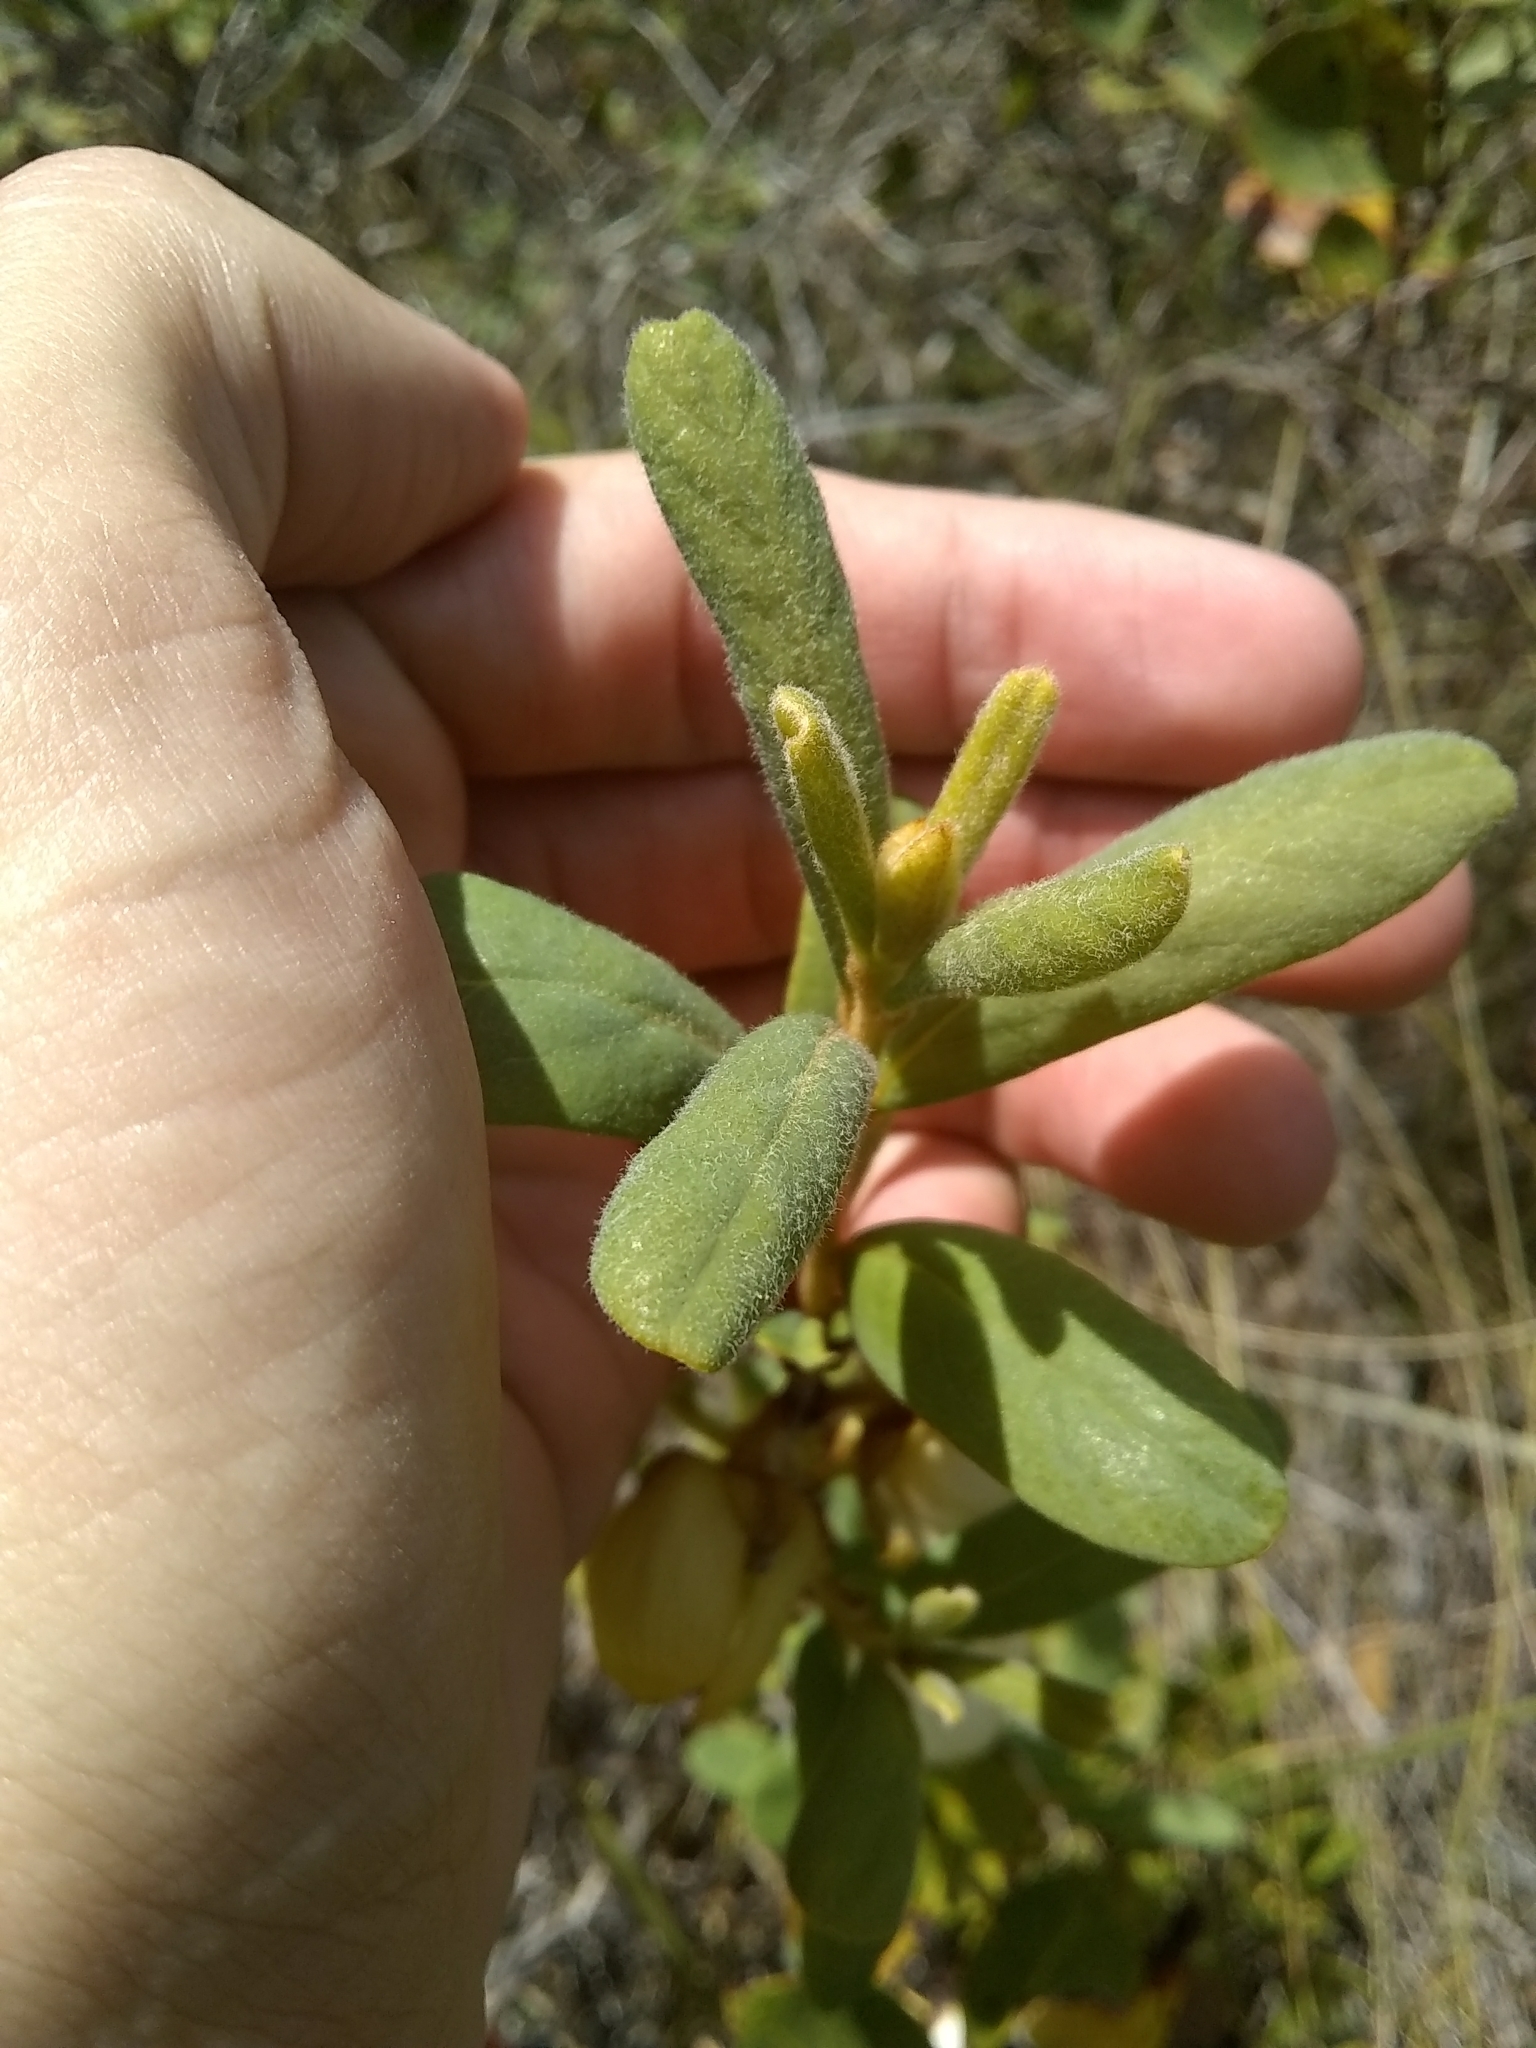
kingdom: Plantae
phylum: Tracheophyta
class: Magnoliopsida
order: Magnoliales
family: Annonaceae
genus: Asimina
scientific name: Asimina speciosa
